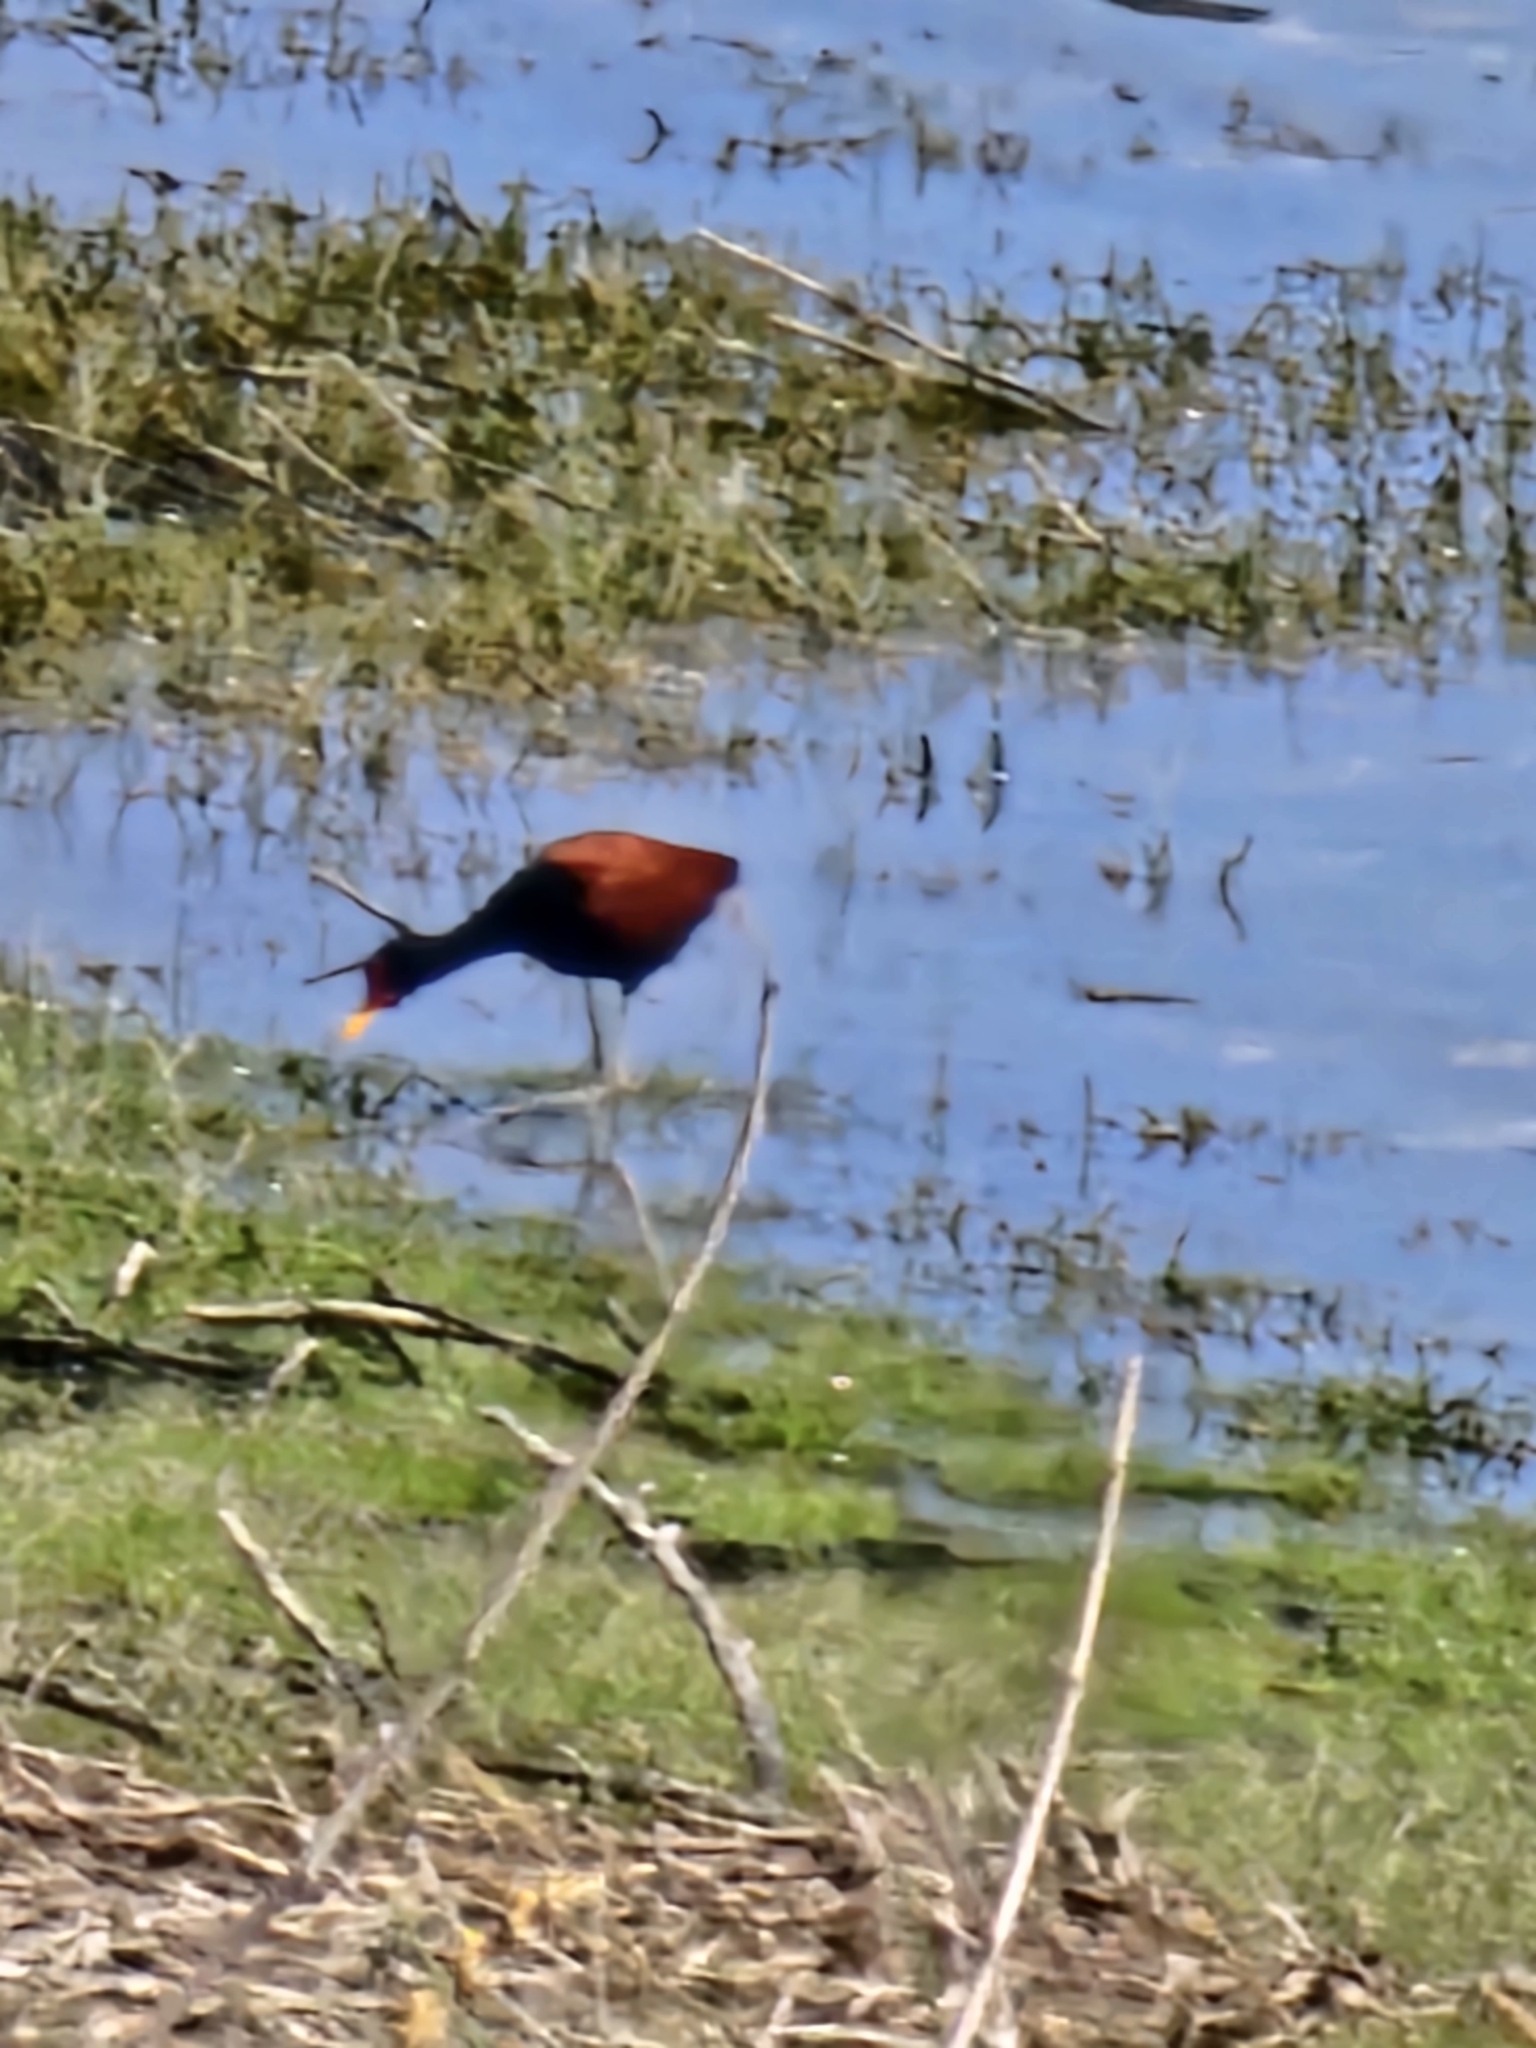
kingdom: Animalia
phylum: Chordata
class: Aves
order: Charadriiformes
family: Jacanidae
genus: Jacana
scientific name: Jacana jacana
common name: Wattled jacana
